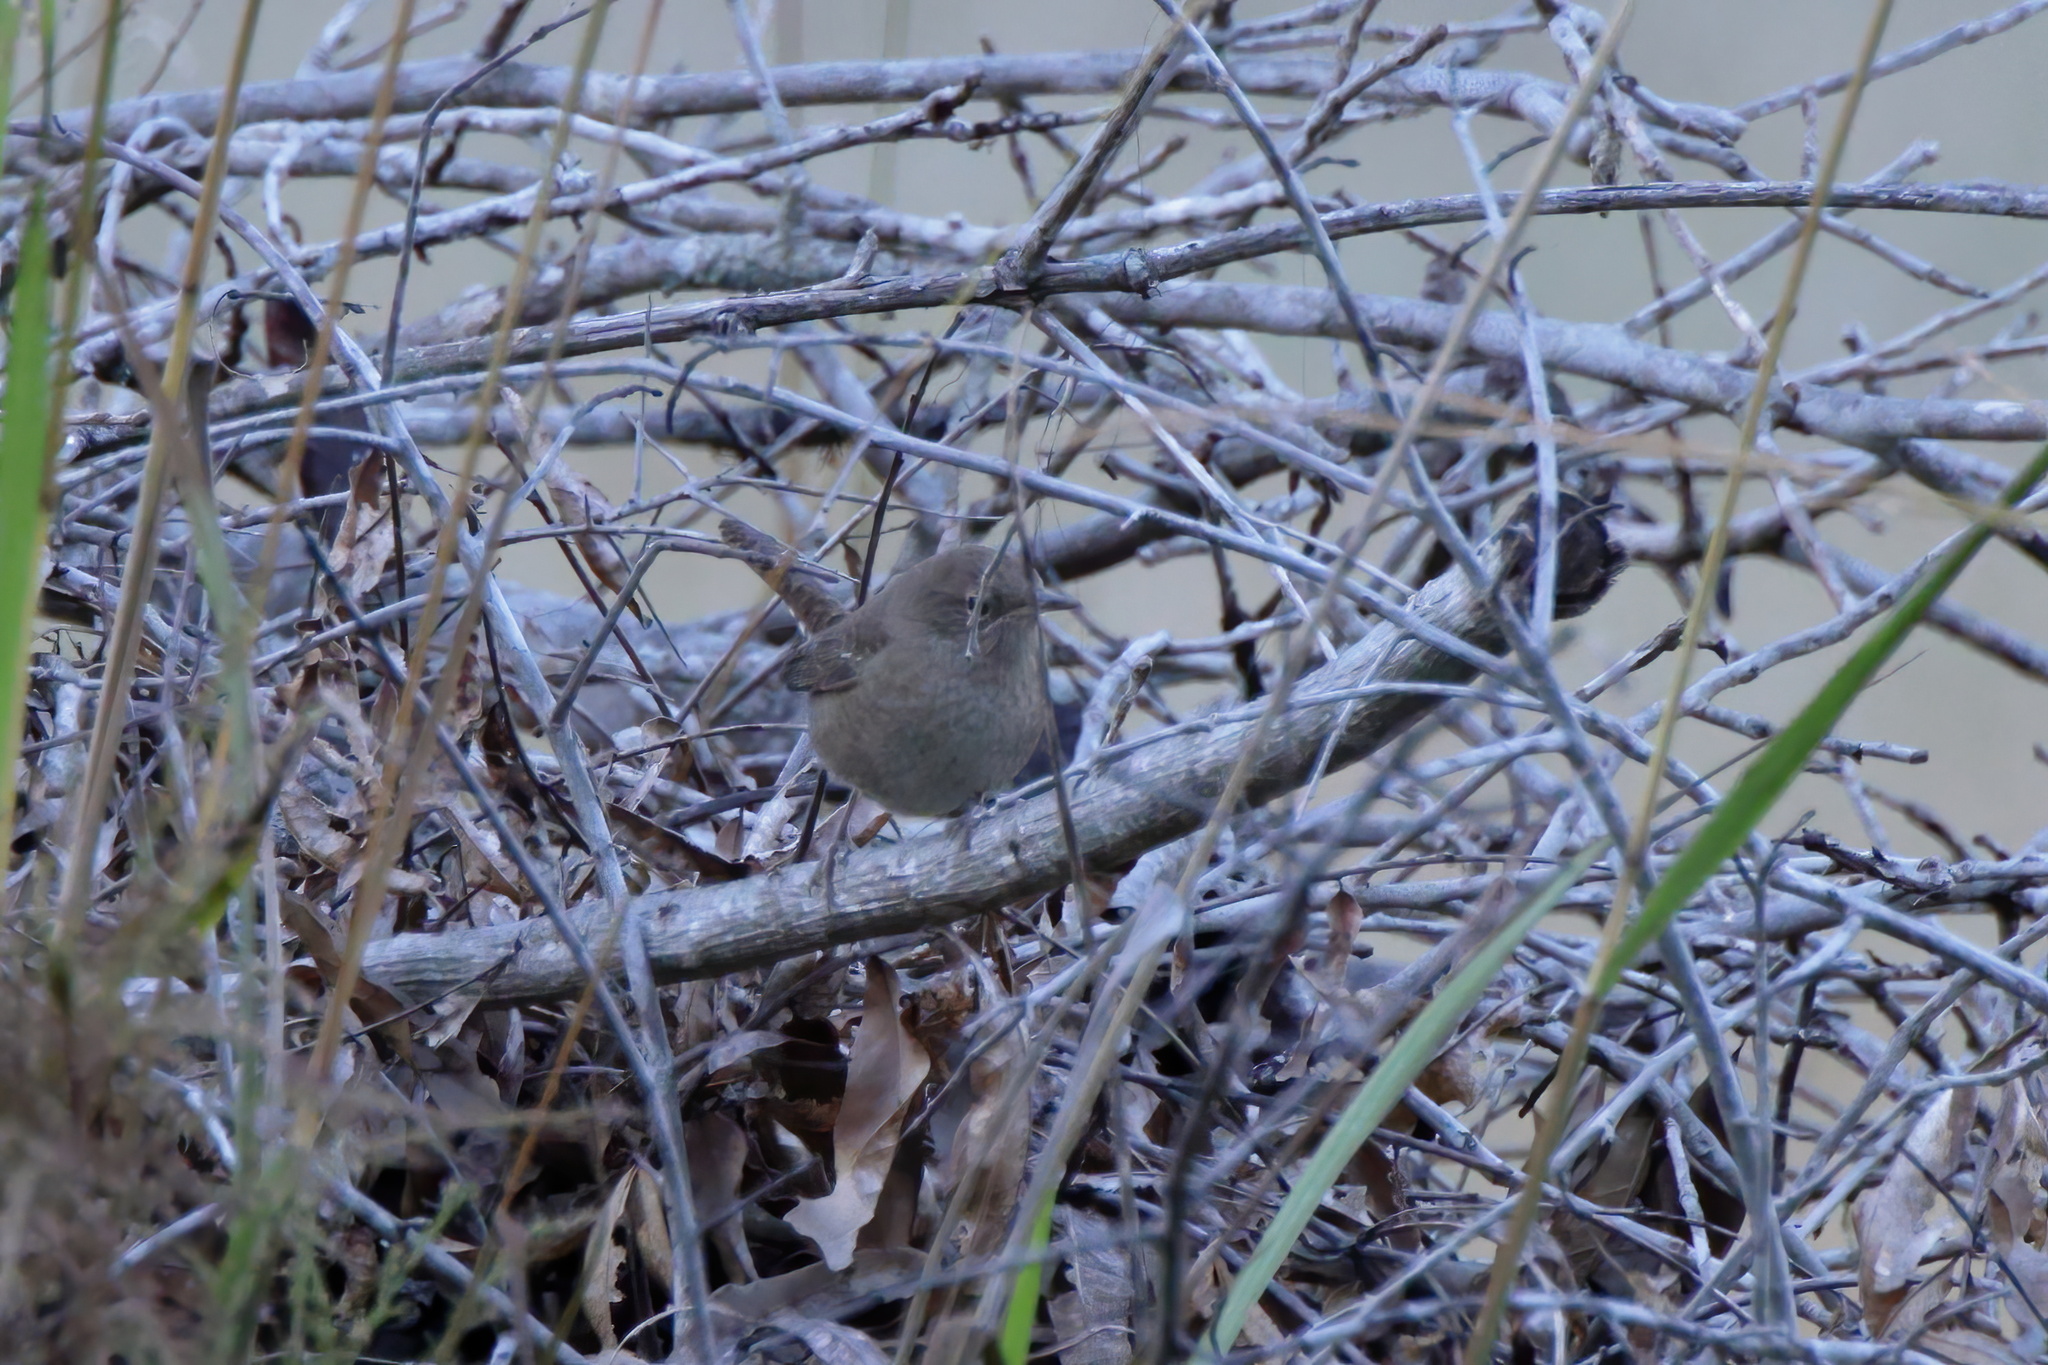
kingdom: Animalia
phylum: Chordata
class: Aves
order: Passeriformes
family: Troglodytidae
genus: Troglodytes
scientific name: Troglodytes aedon
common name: House wren
